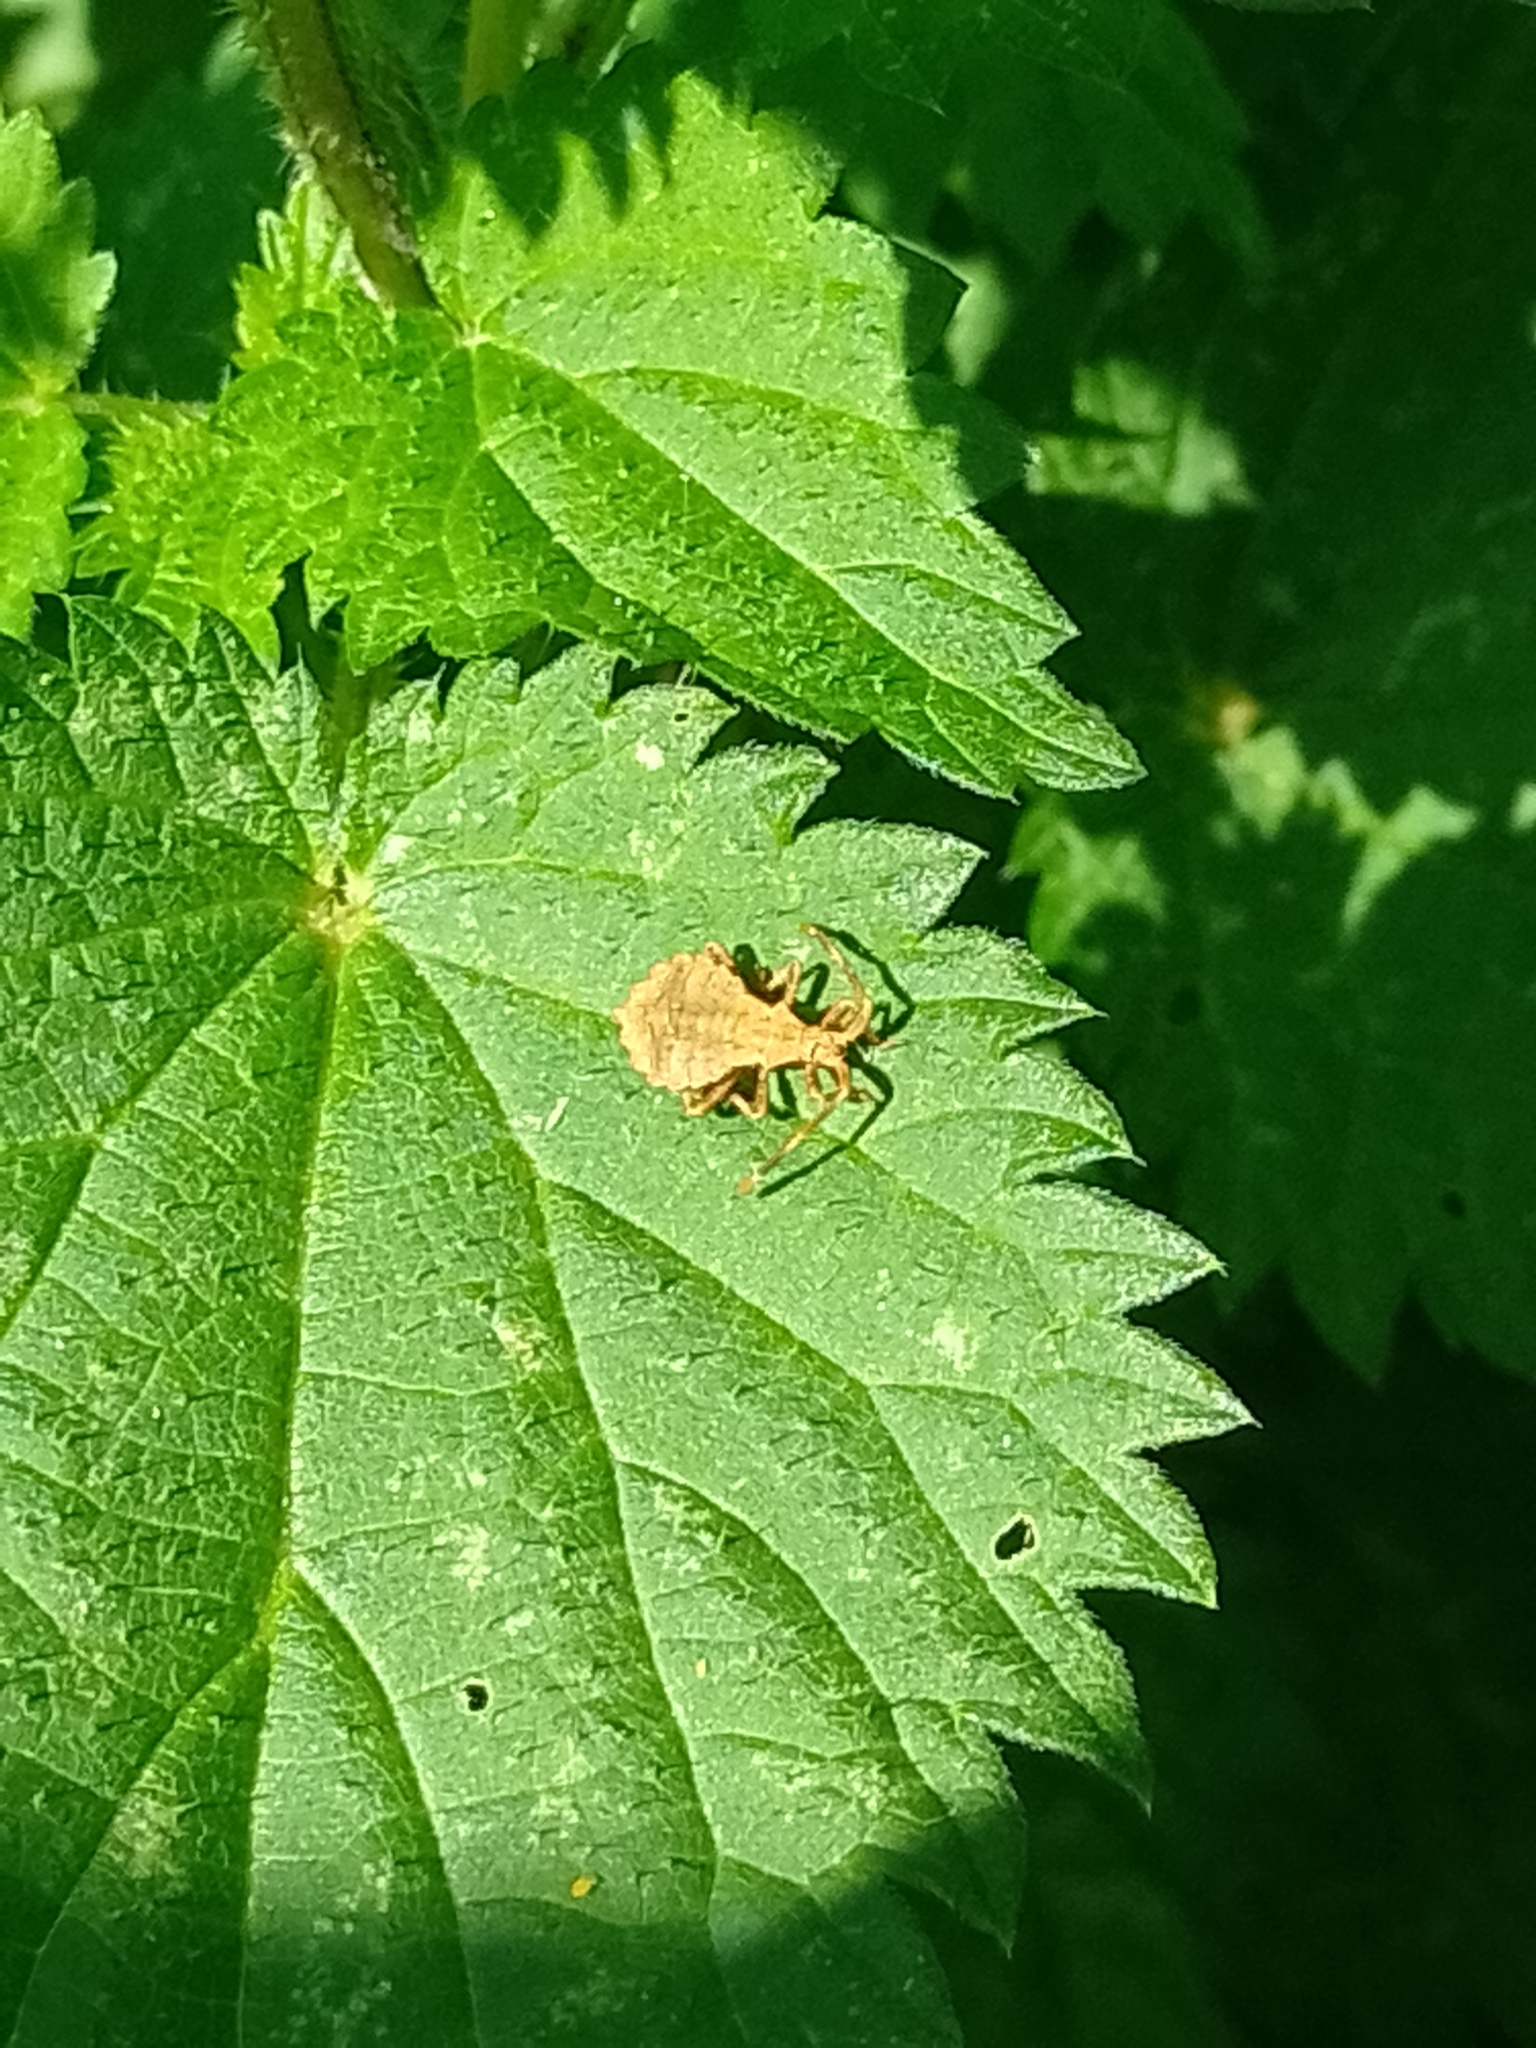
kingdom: Animalia
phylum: Arthropoda
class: Insecta
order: Hemiptera
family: Coreidae
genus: Coreus
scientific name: Coreus marginatus
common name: Dock bug
